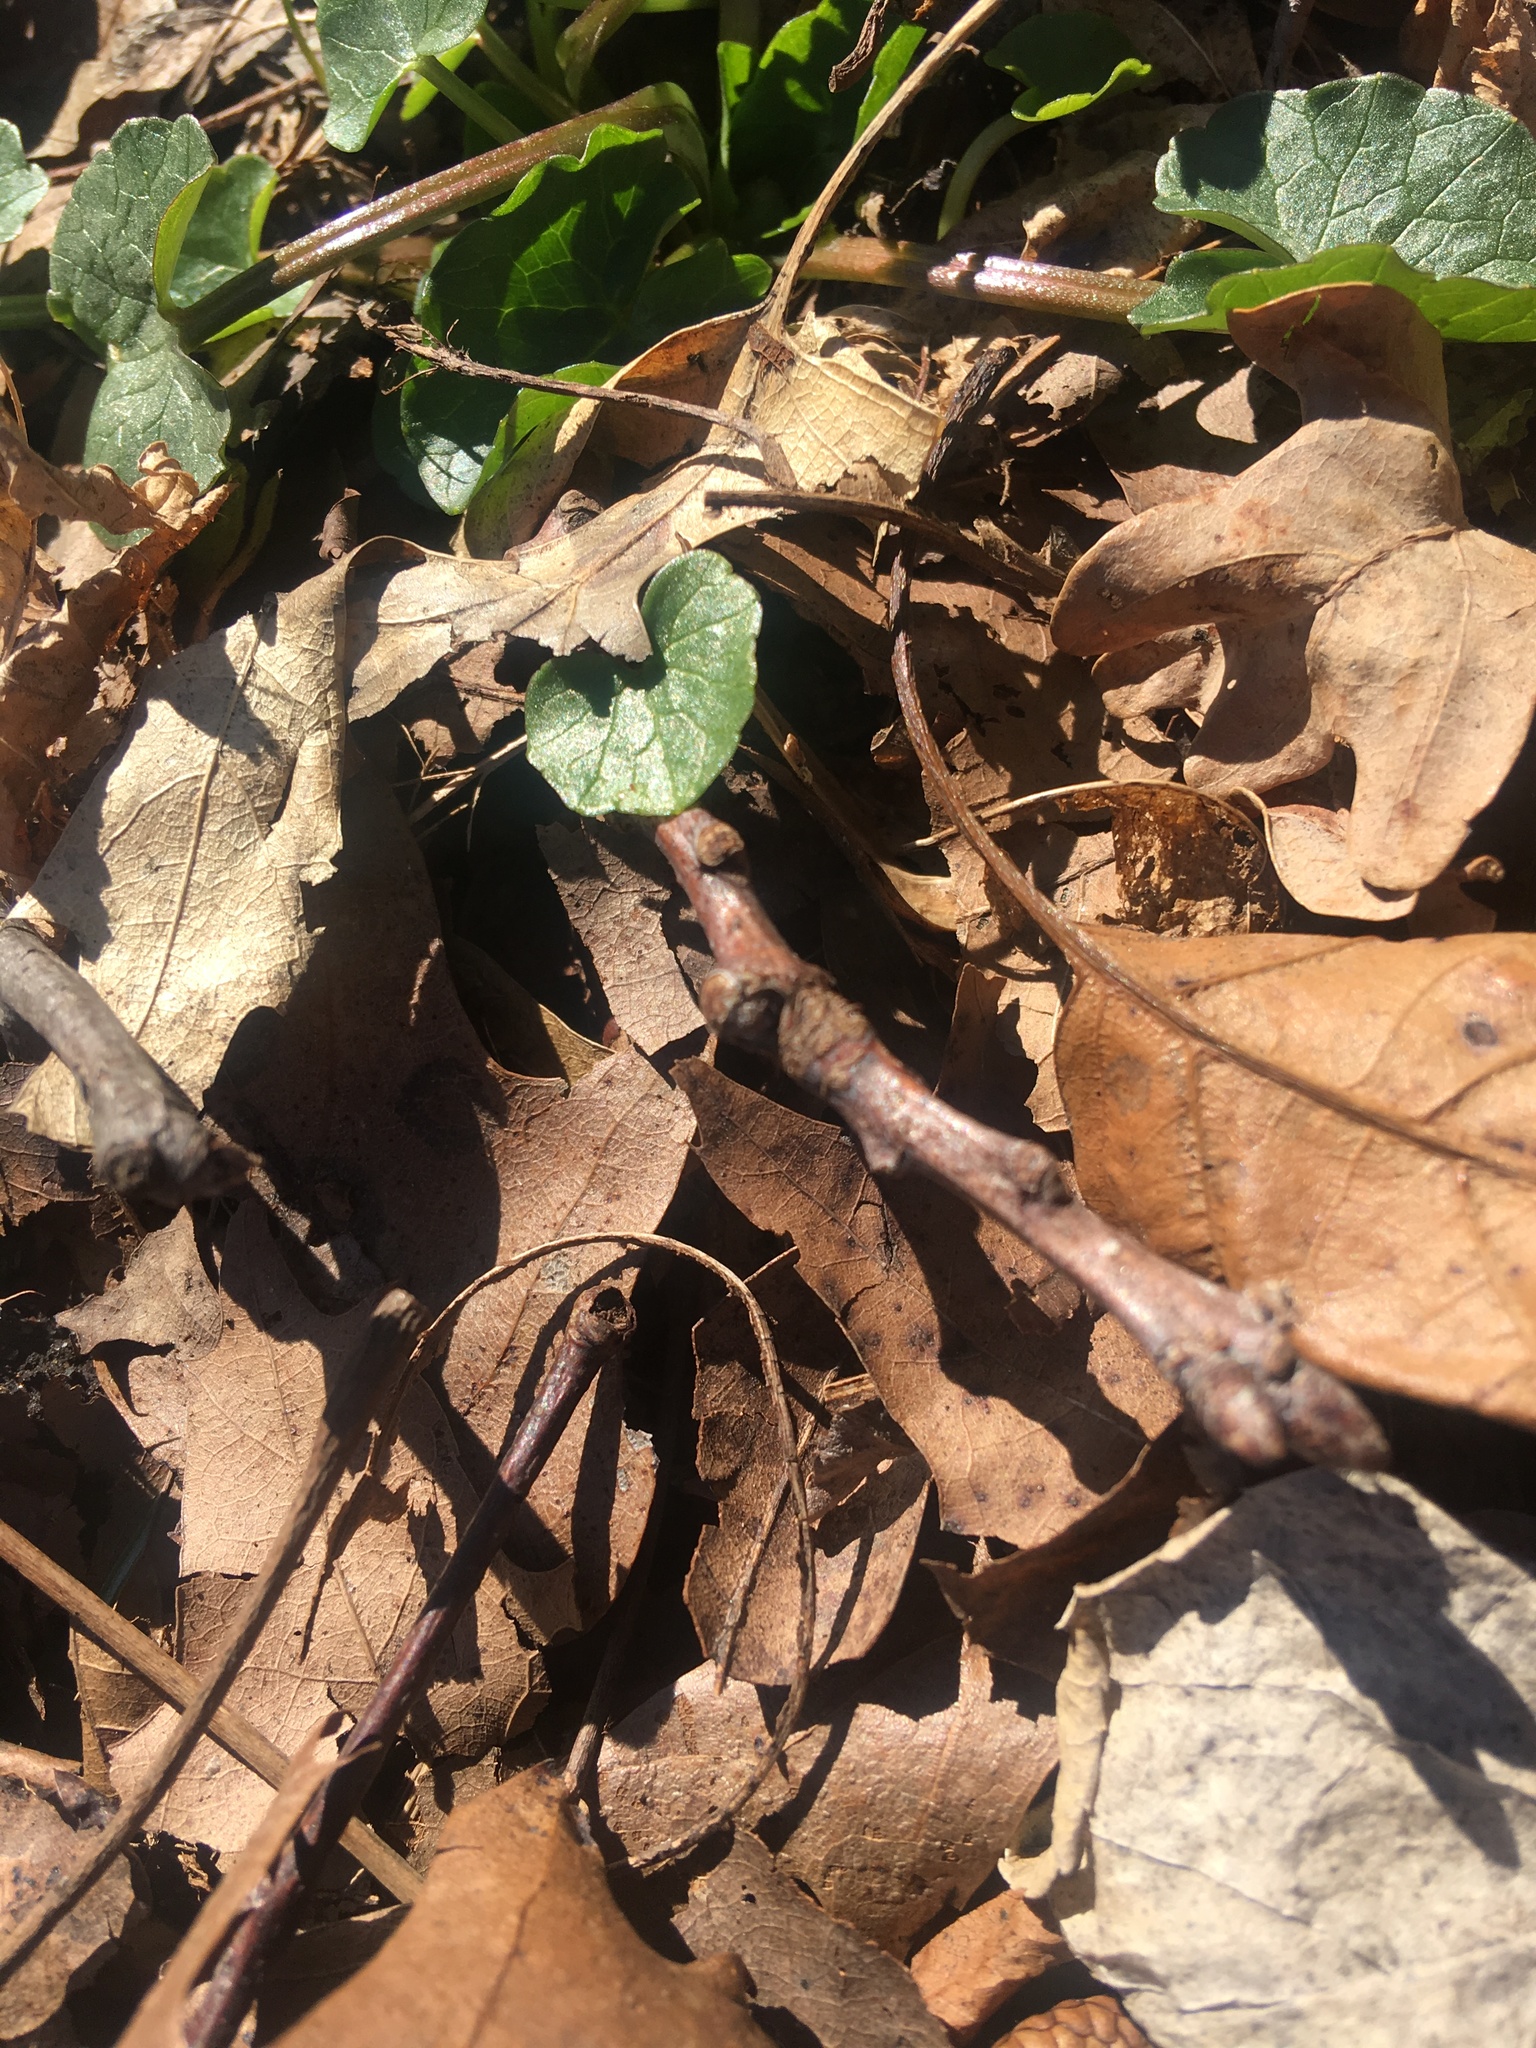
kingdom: Plantae
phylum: Tracheophyta
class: Magnoliopsida
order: Ranunculales
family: Ranunculaceae
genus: Ficaria
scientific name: Ficaria verna
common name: Lesser celandine
